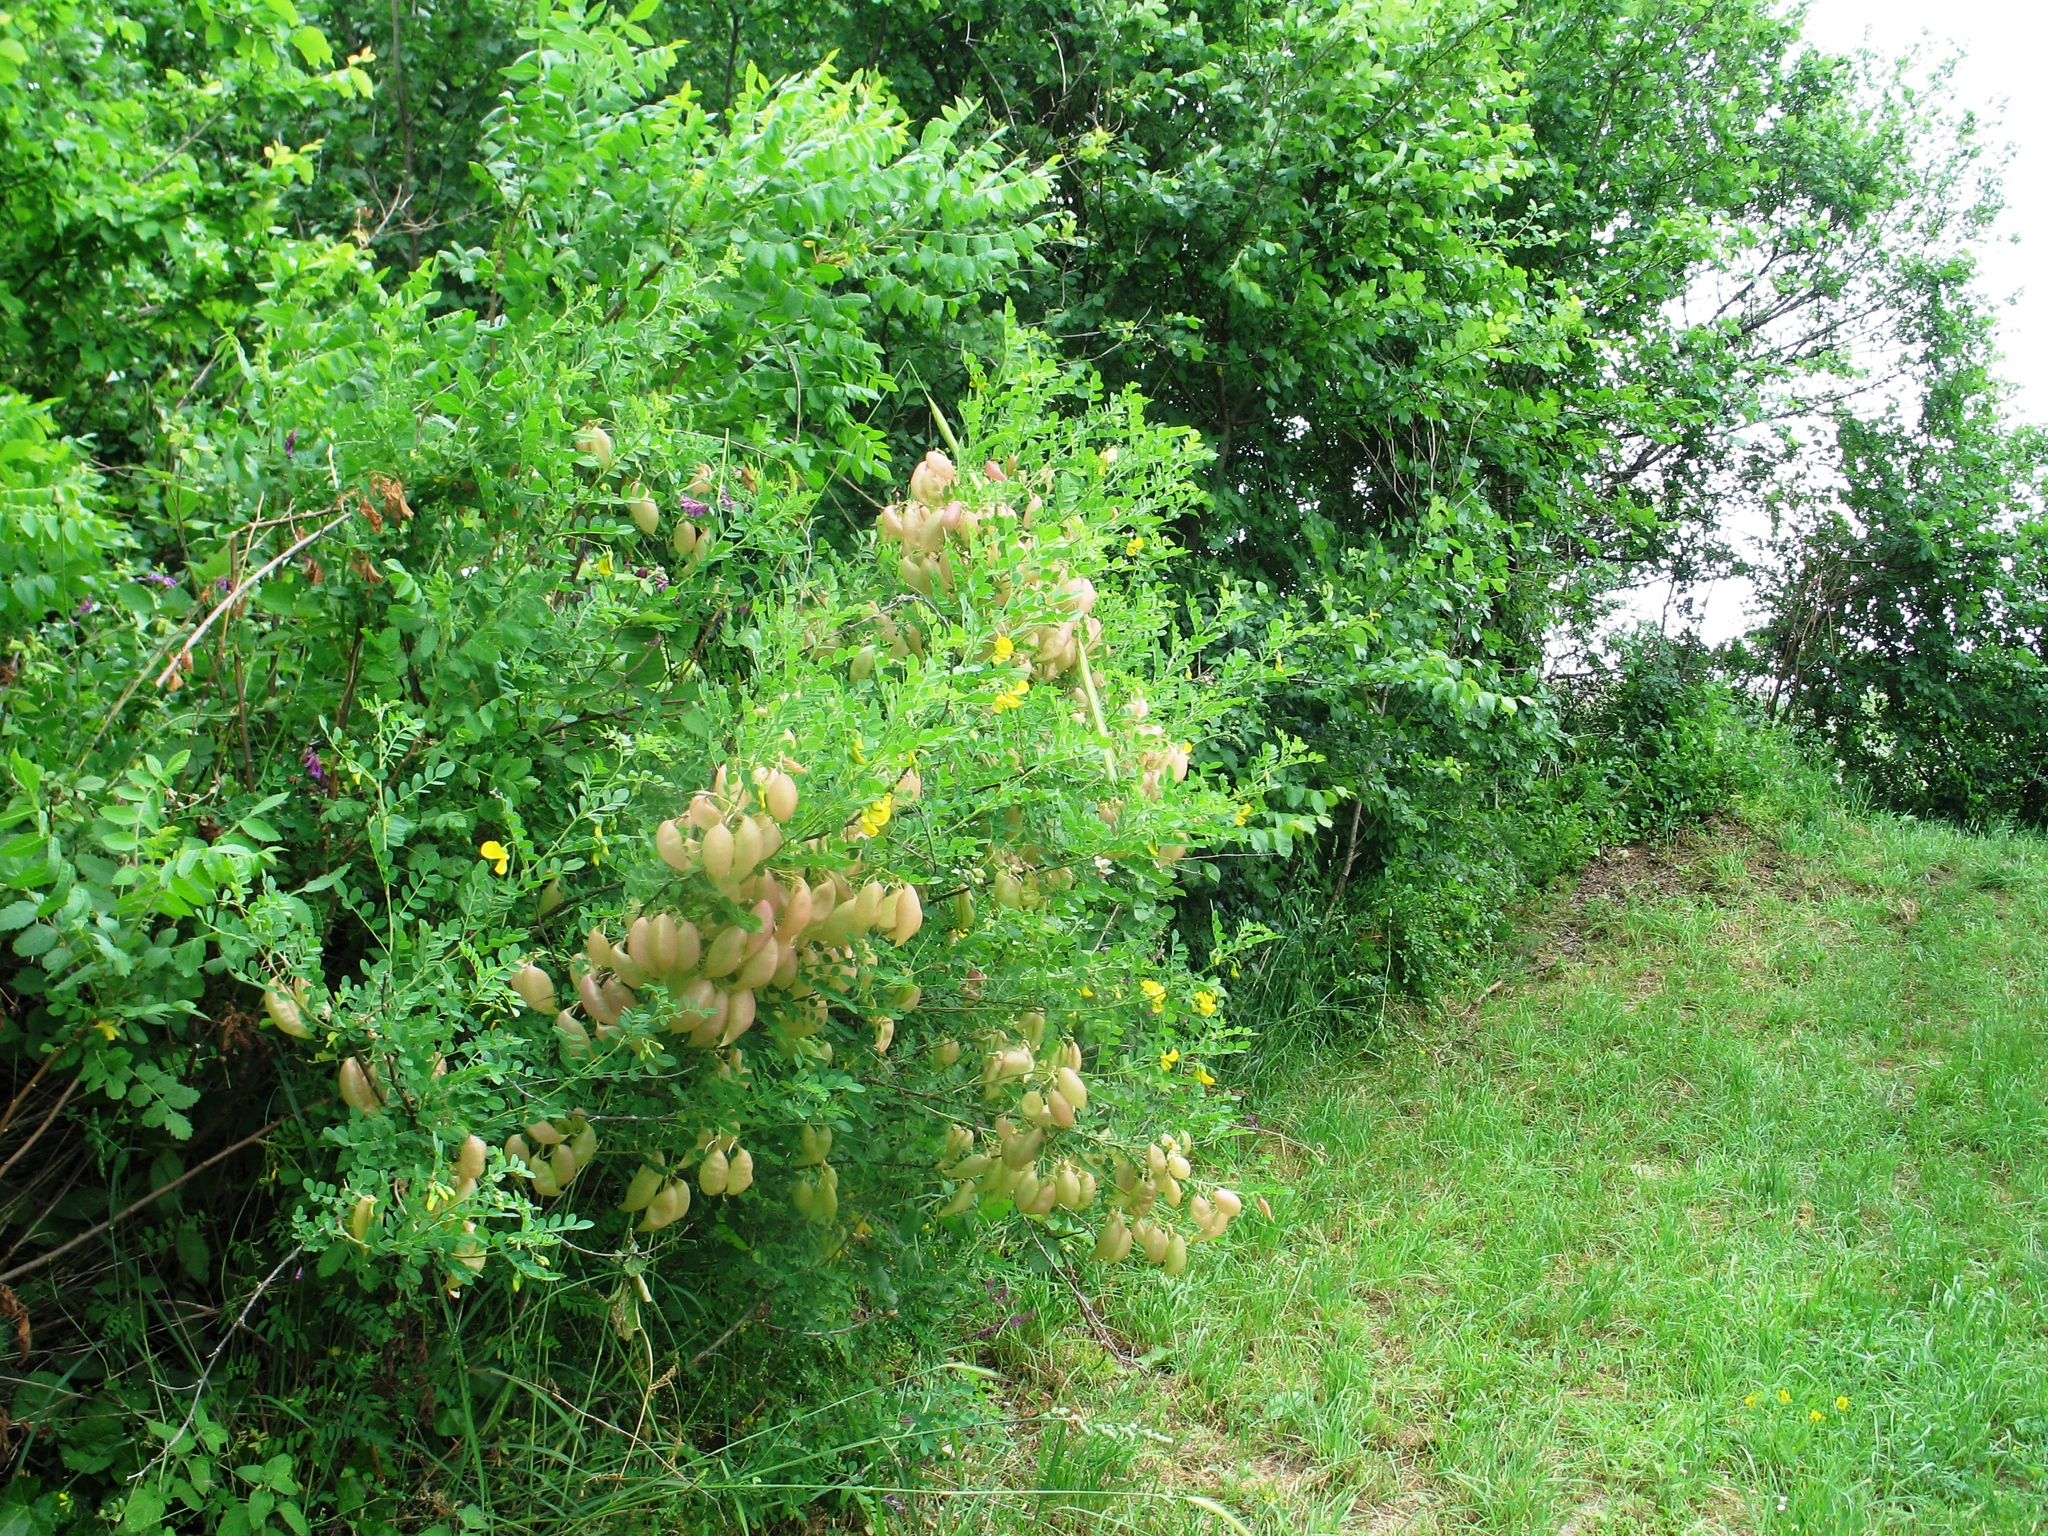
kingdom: Plantae
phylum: Tracheophyta
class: Magnoliopsida
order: Fabales
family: Fabaceae
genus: Colutea
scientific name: Colutea arborescens
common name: Bladder-senna
